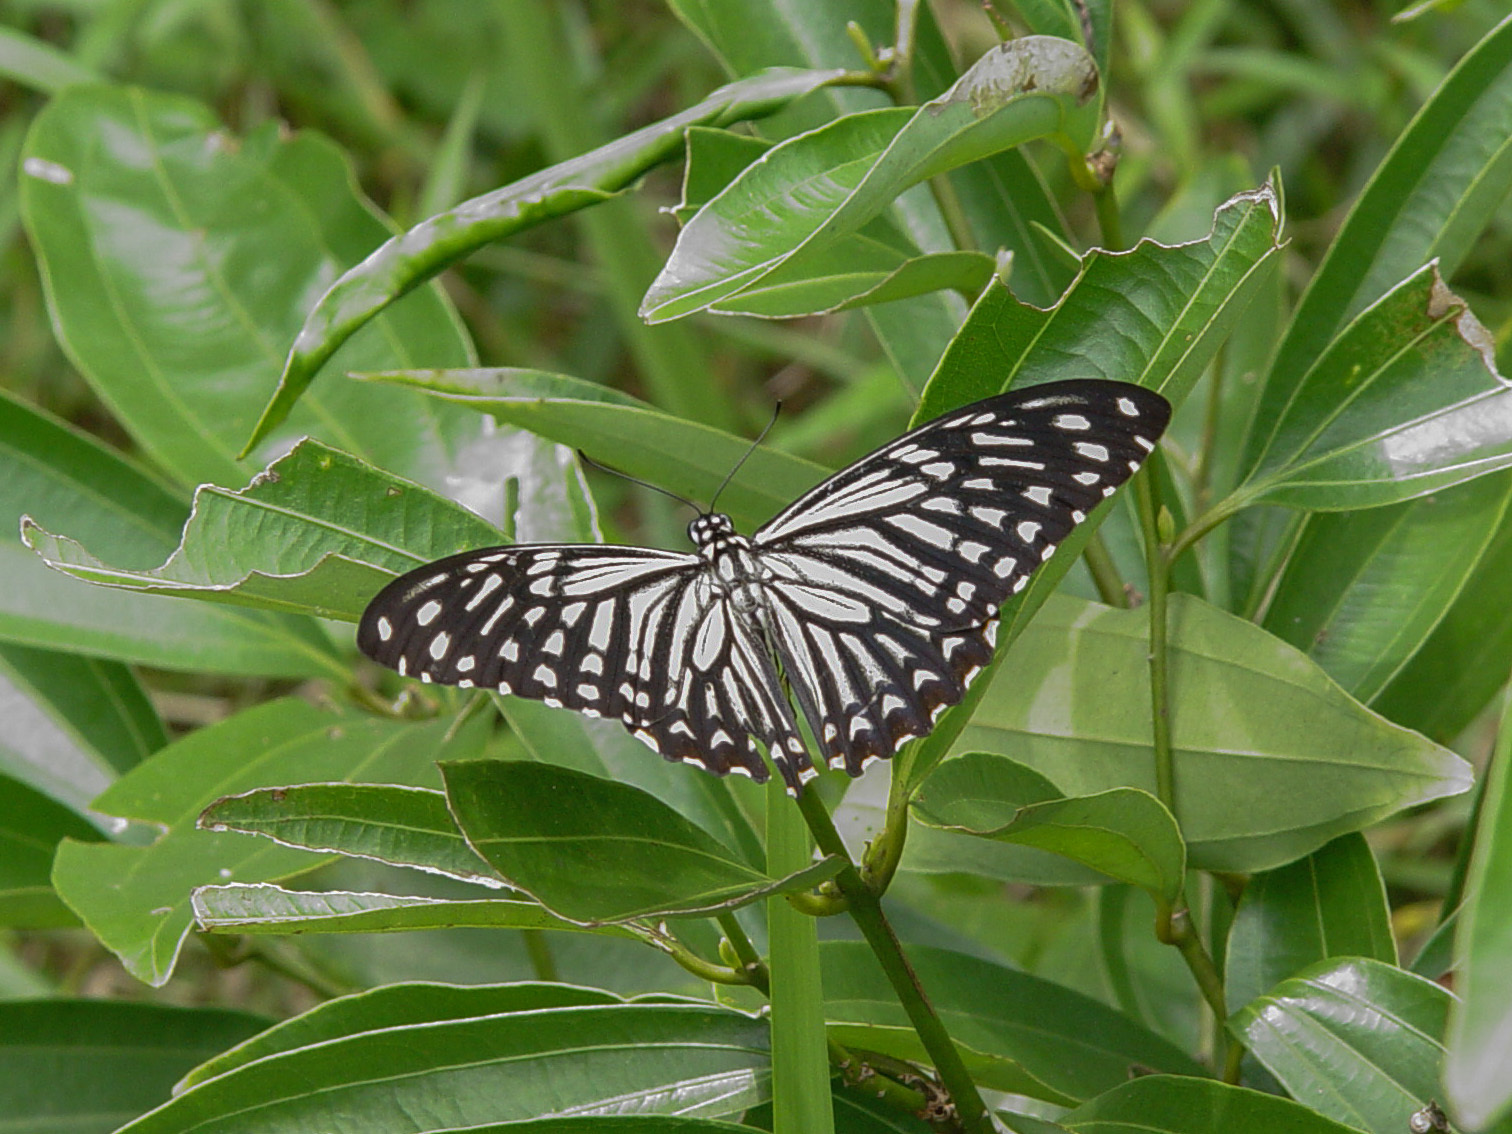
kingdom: Animalia
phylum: Arthropoda
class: Insecta
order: Lepidoptera
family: Papilionidae
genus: Chilasa
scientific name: Chilasa clytia
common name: Common mime
